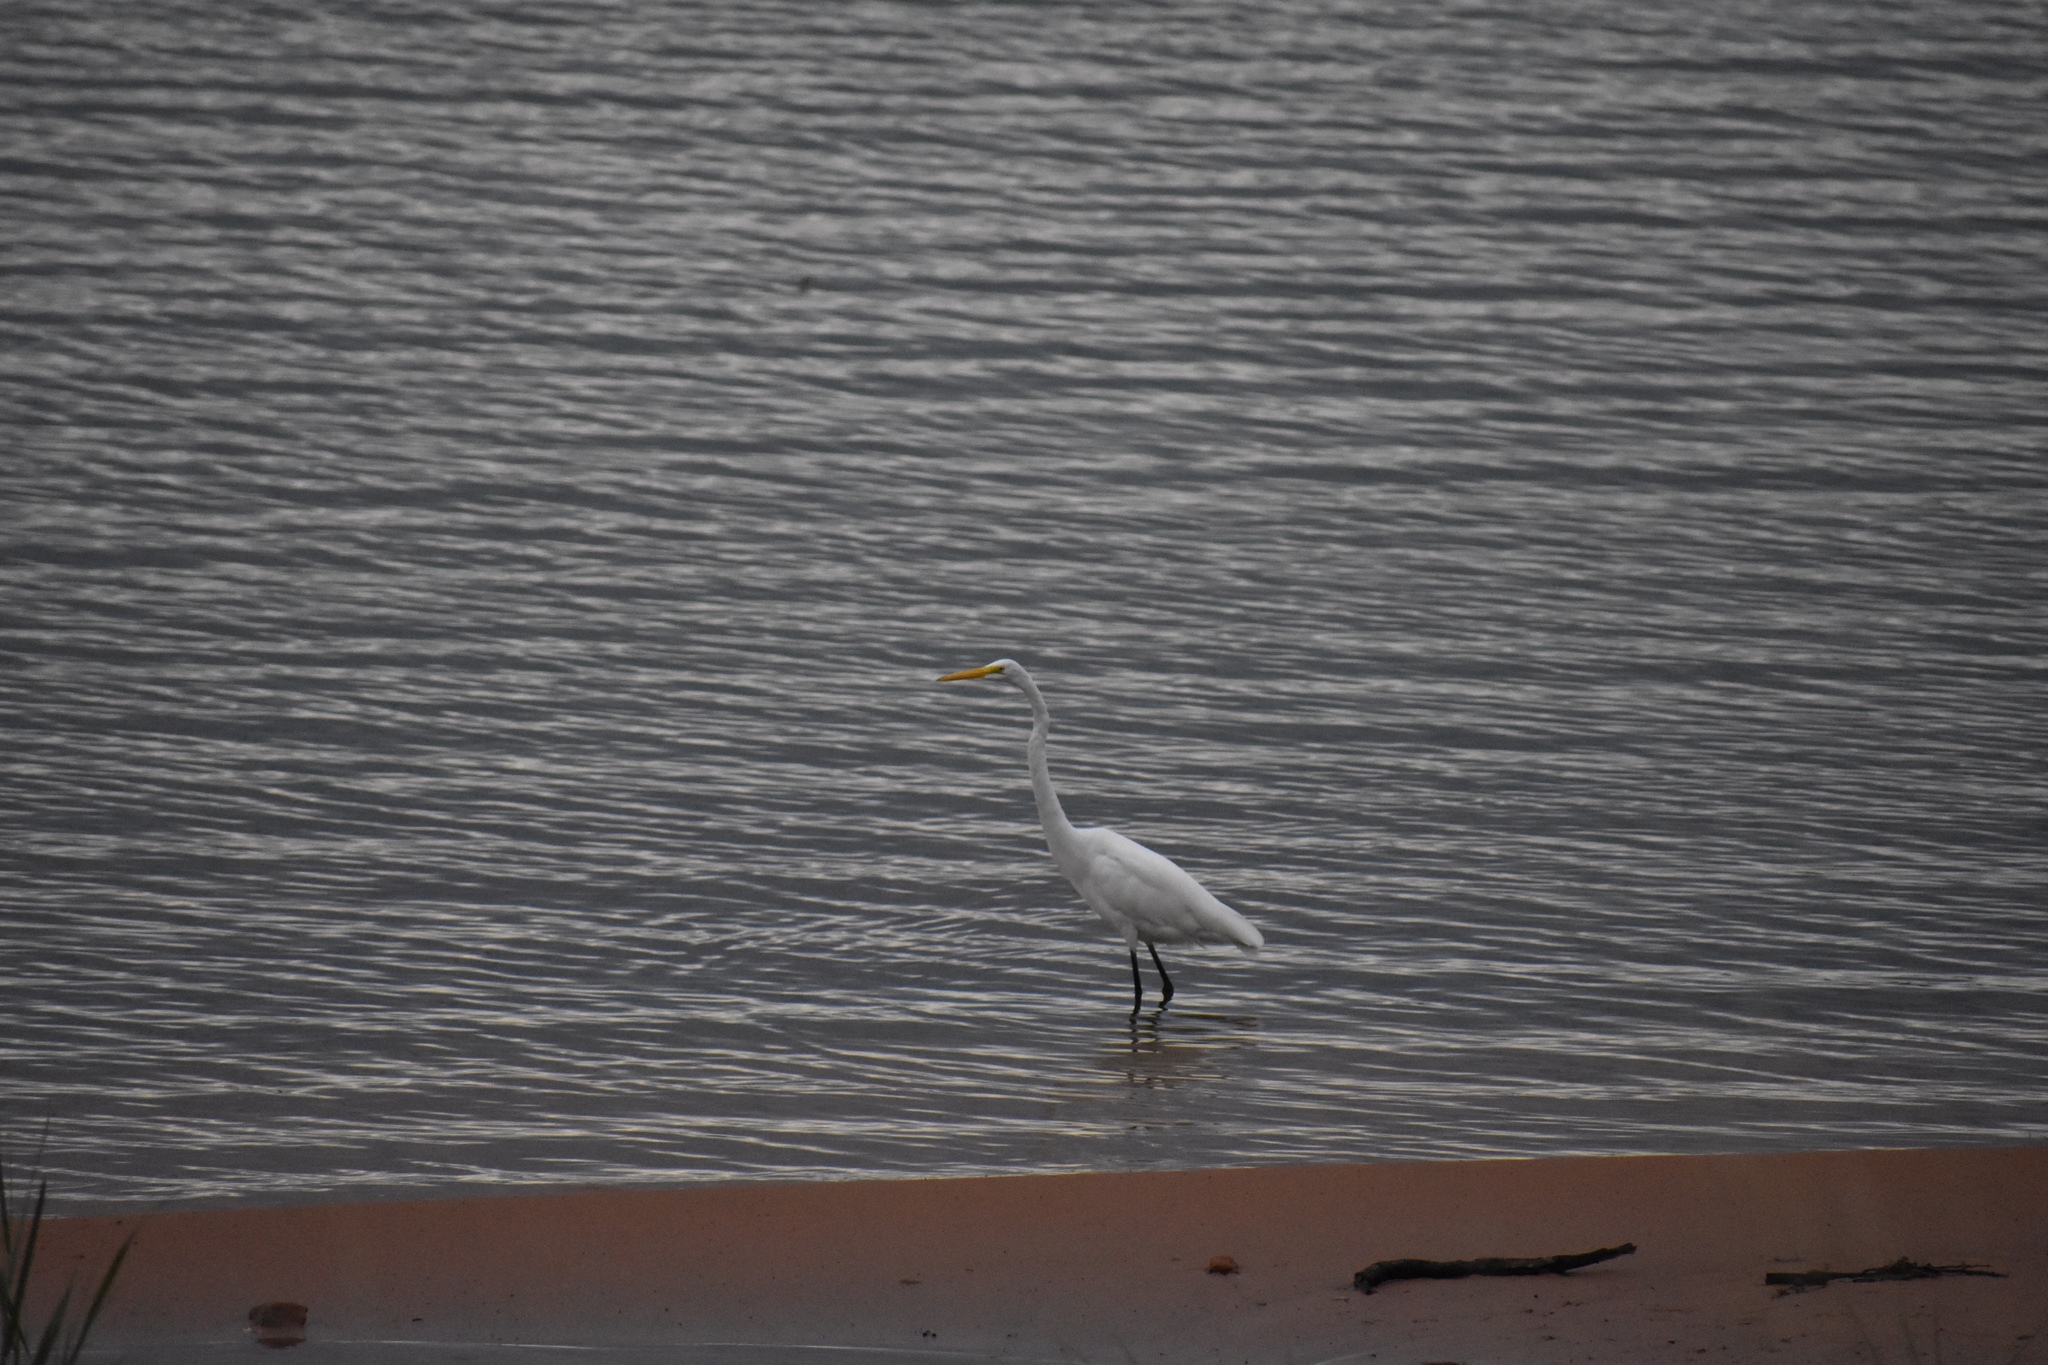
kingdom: Animalia
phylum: Chordata
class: Aves
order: Pelecaniformes
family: Ardeidae
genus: Ardea
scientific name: Ardea alba
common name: Great egret
